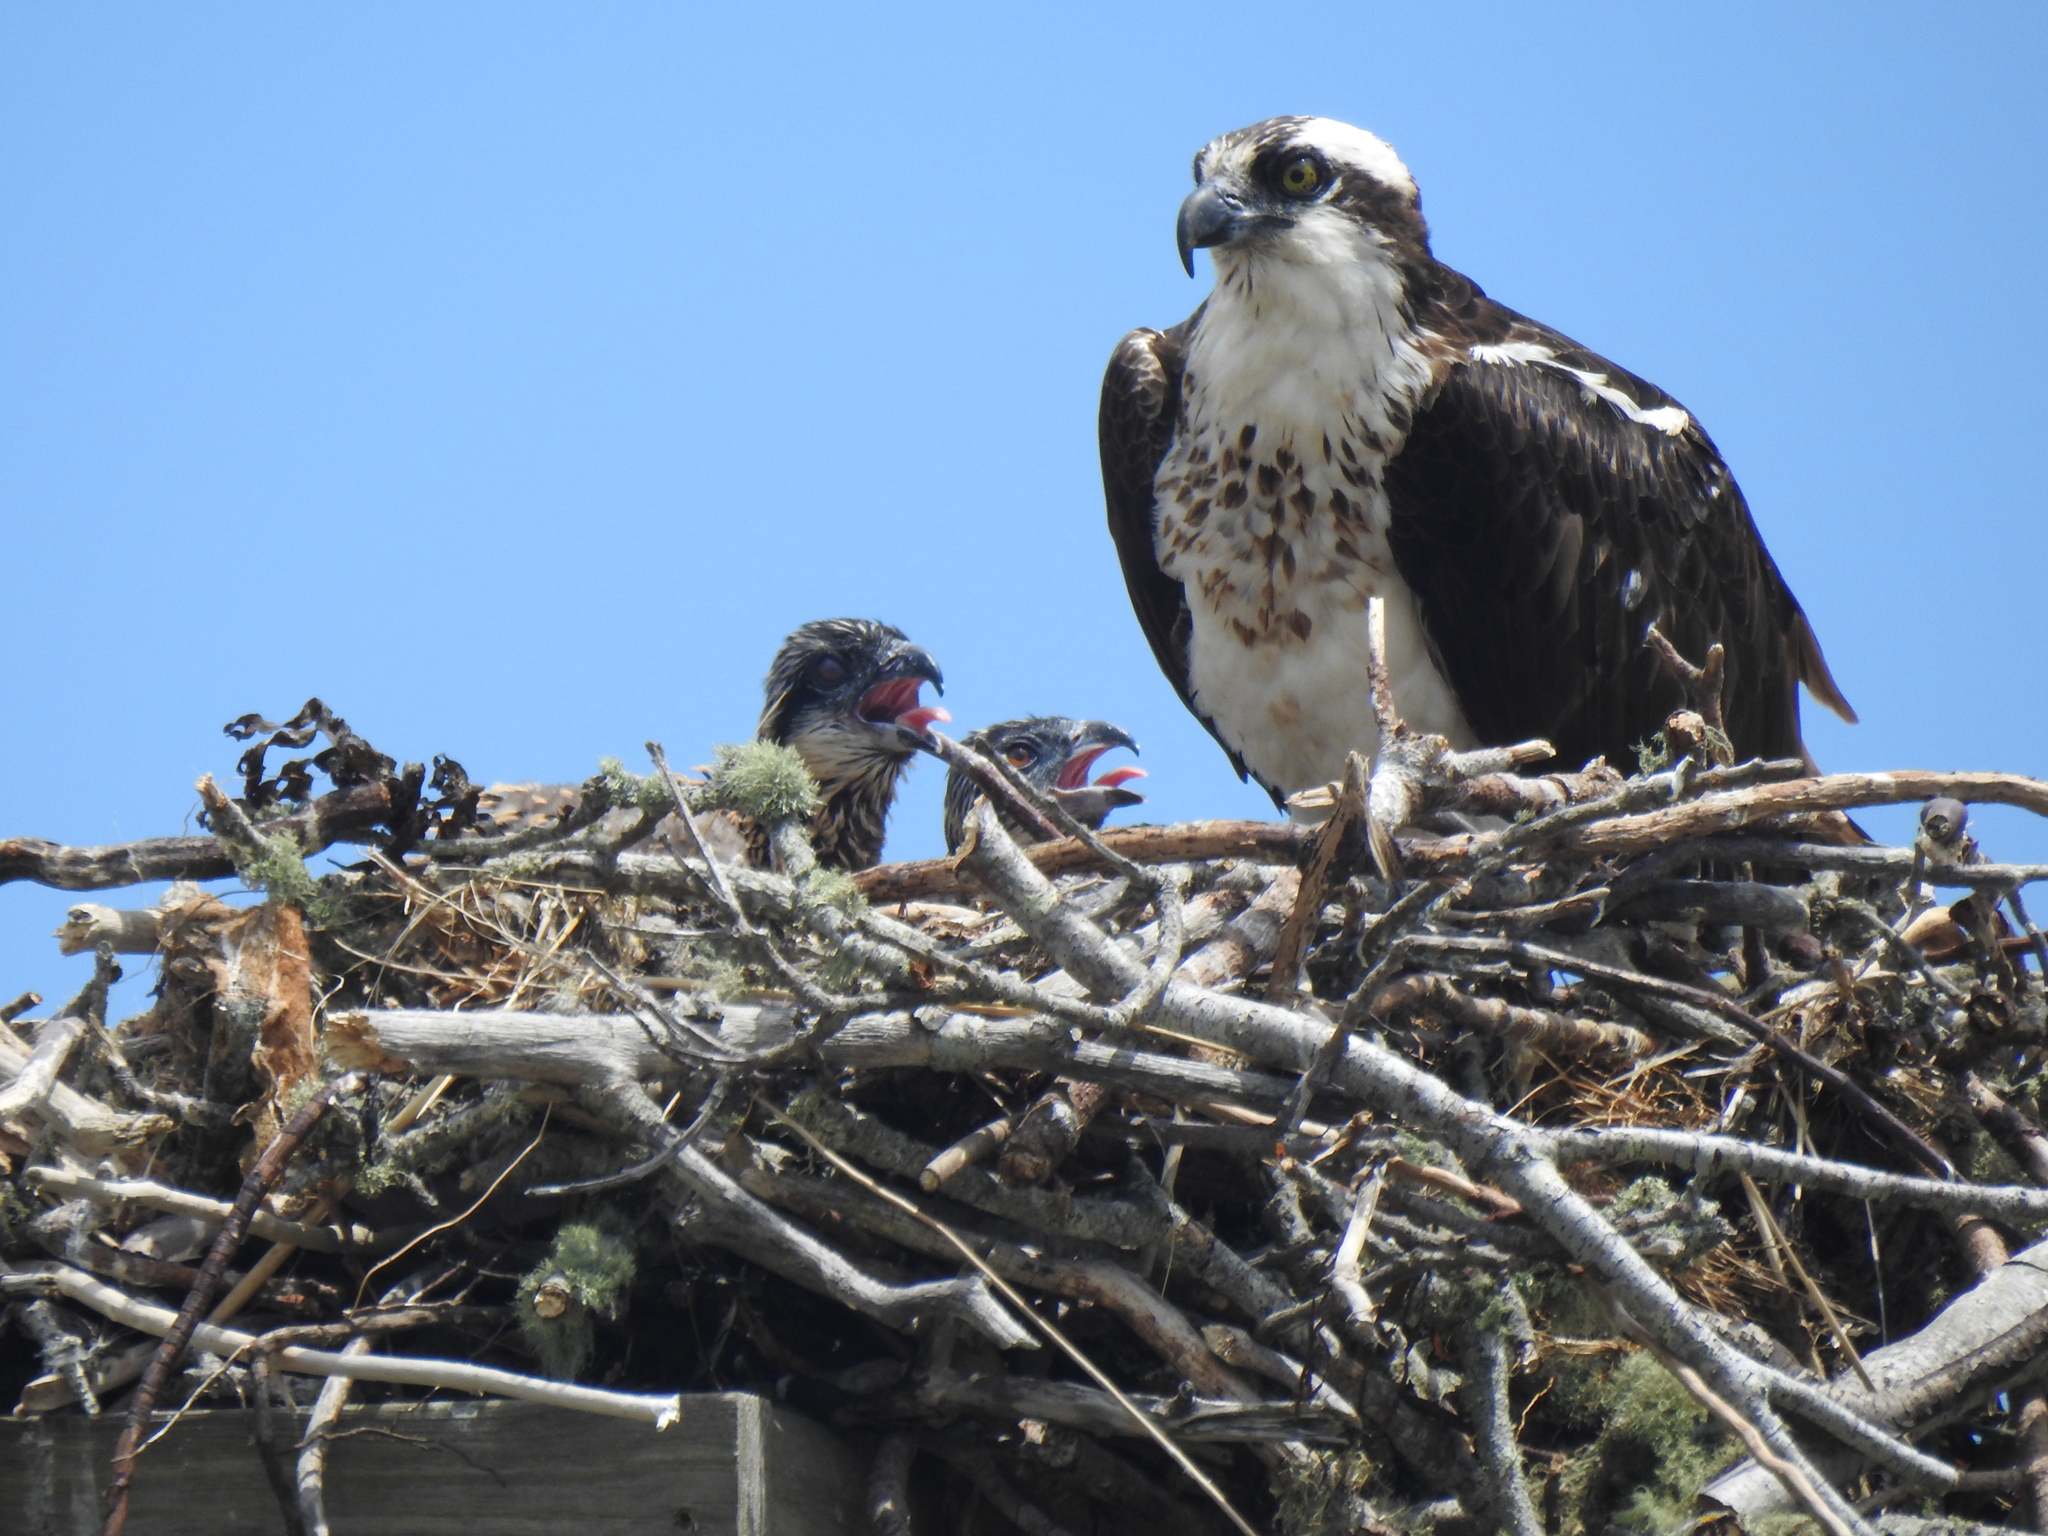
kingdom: Animalia
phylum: Chordata
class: Aves
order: Accipitriformes
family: Pandionidae
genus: Pandion
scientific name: Pandion haliaetus
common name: Osprey
